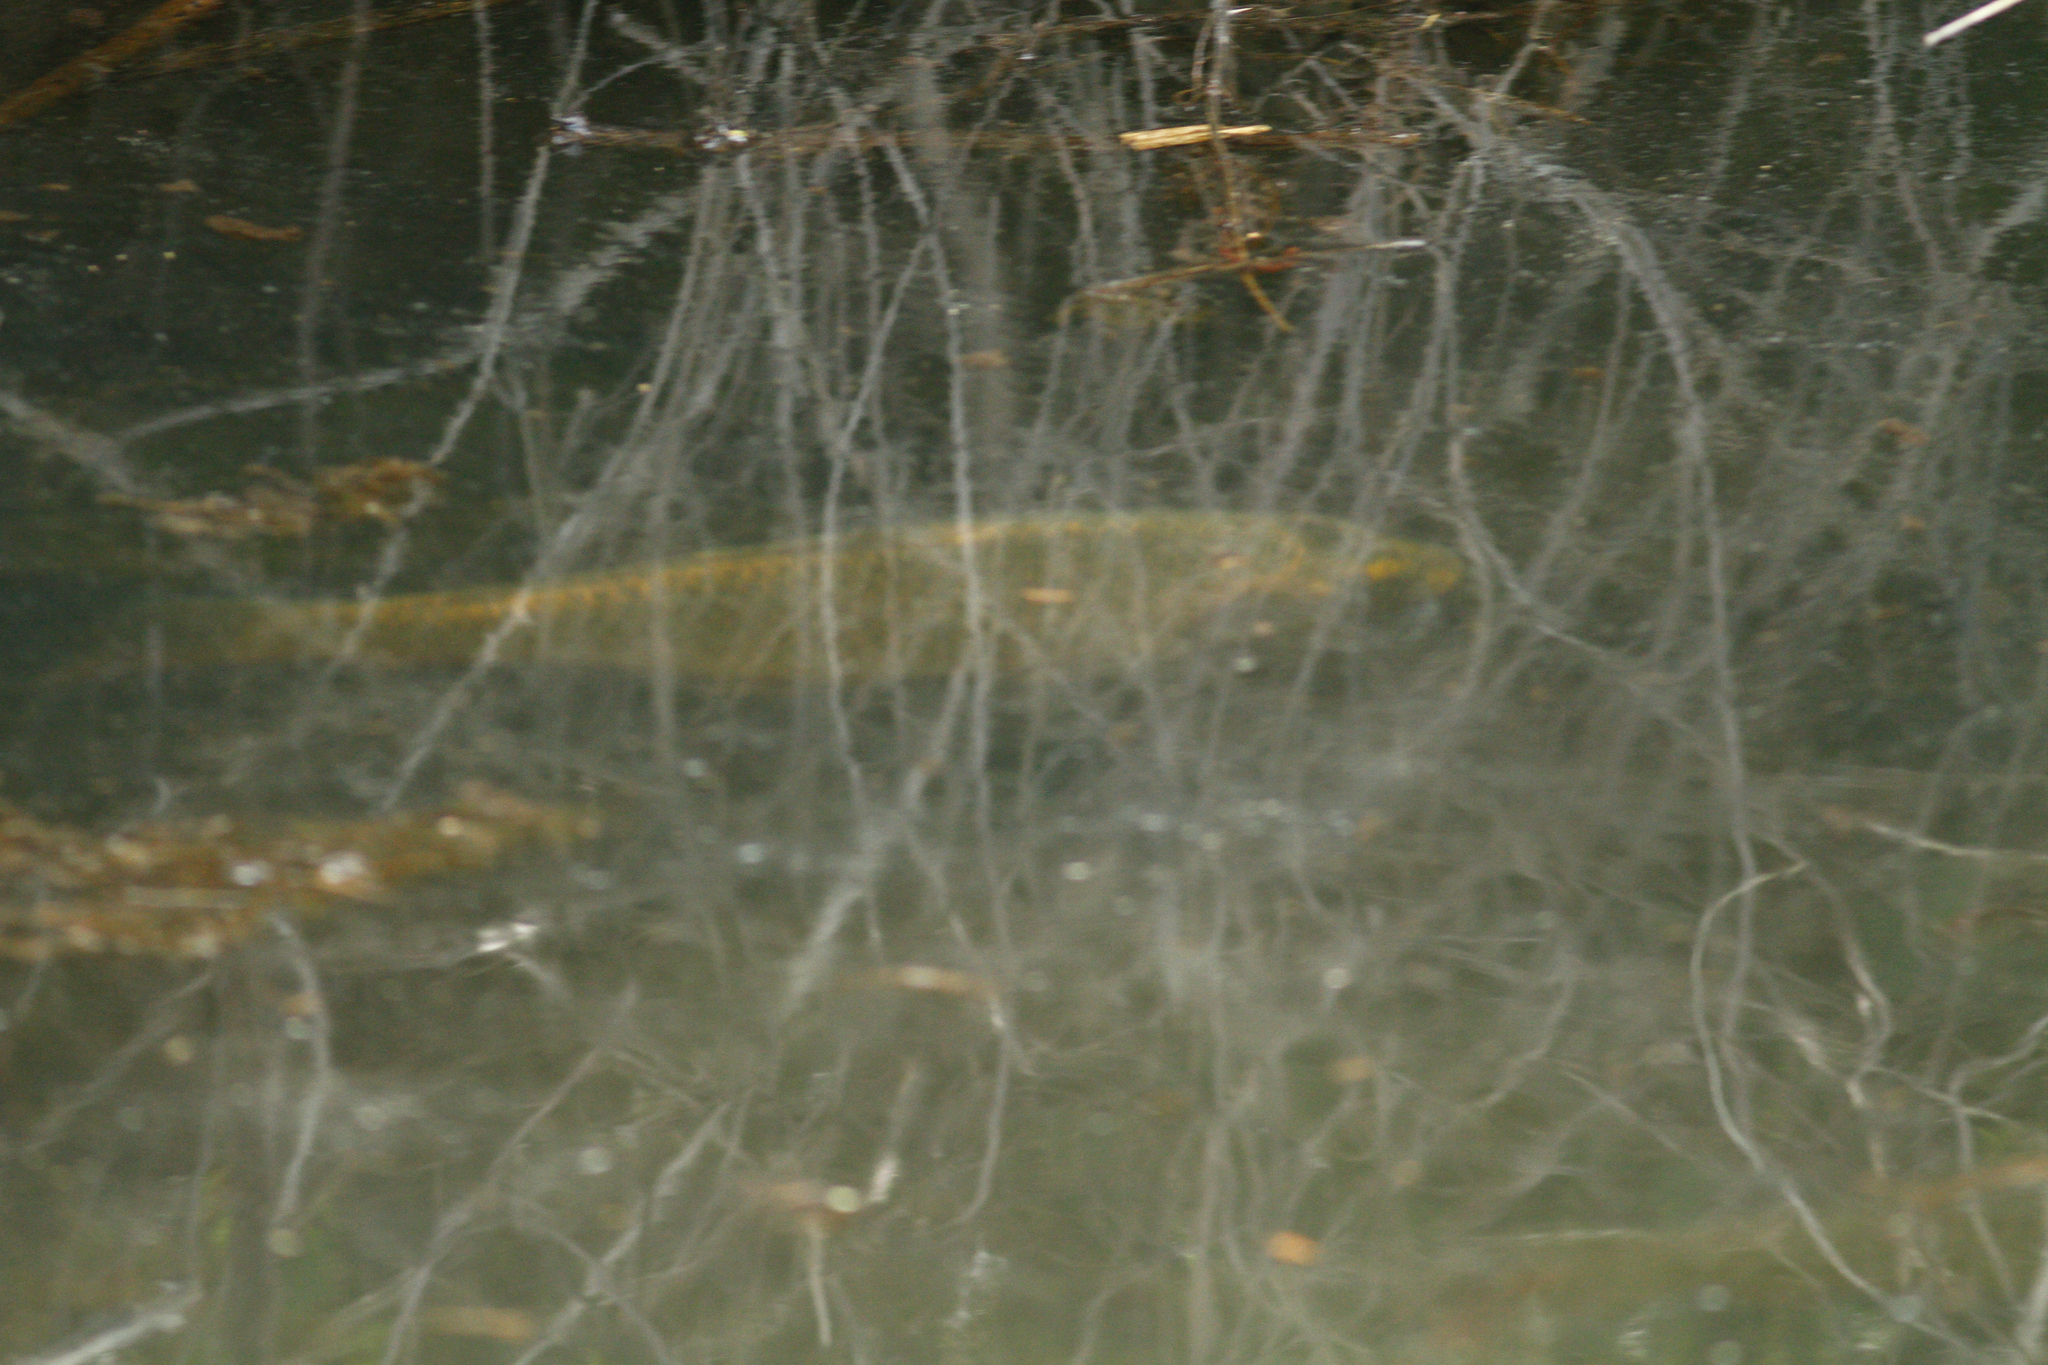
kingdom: Animalia
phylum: Chordata
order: Cypriniformes
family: Cyprinidae
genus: Cyprinus
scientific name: Cyprinus carpio
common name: Common carp
